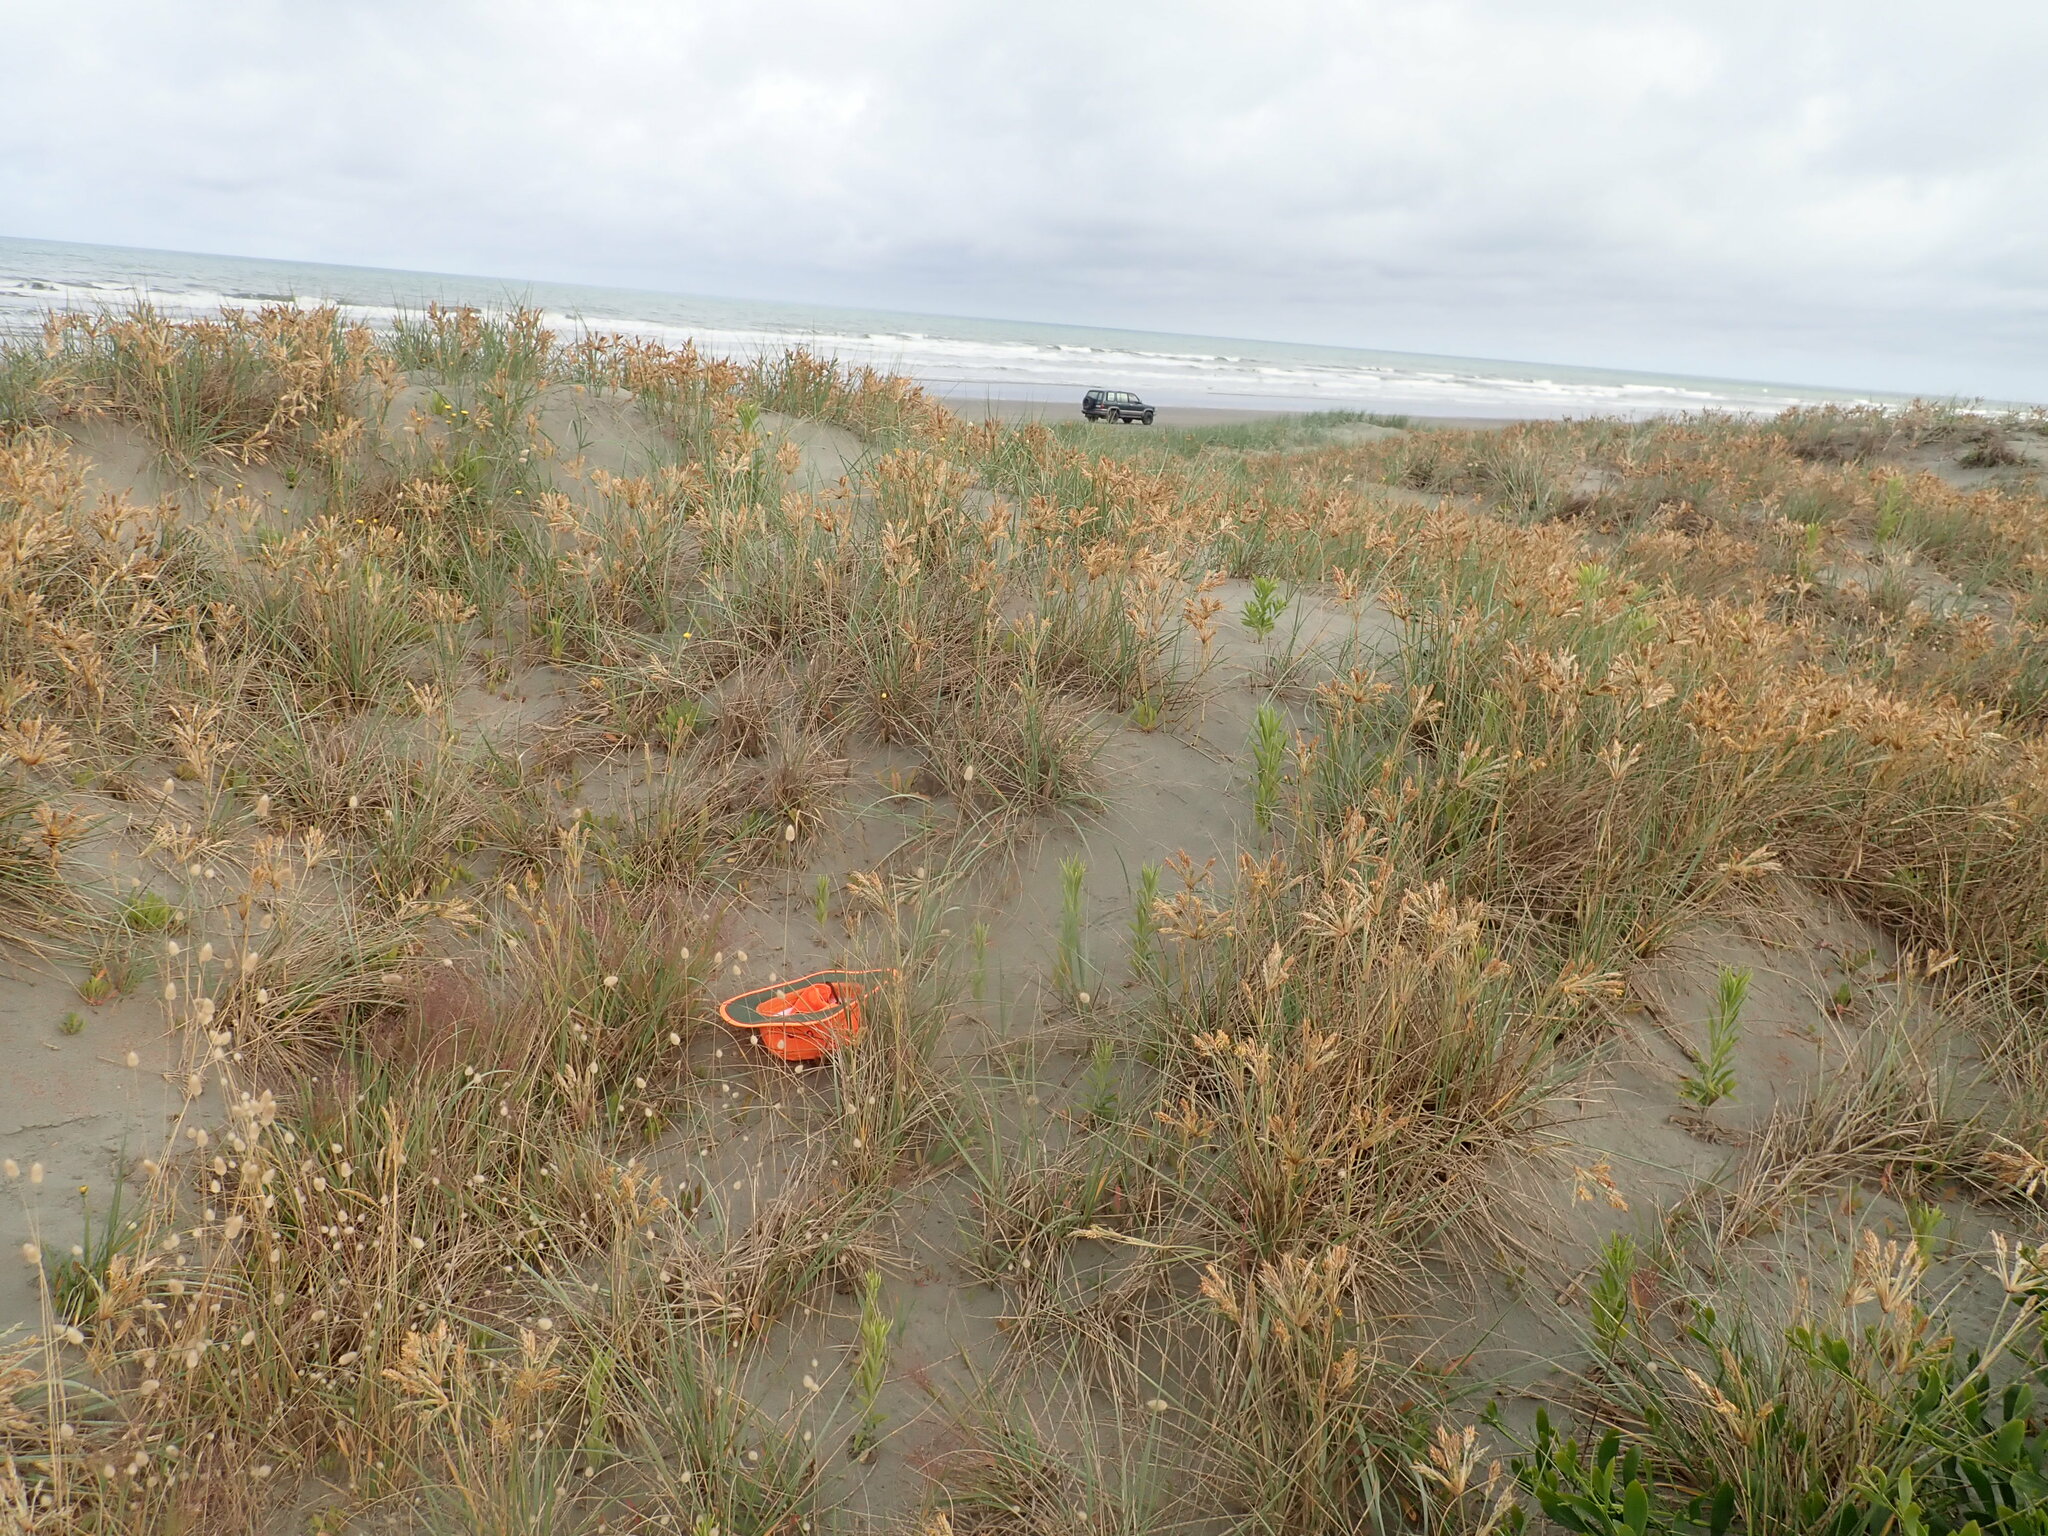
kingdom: Plantae
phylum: Tracheophyta
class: Liliopsida
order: Poales
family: Poaceae
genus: Lachnagrostis
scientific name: Lachnagrostis billardierei
